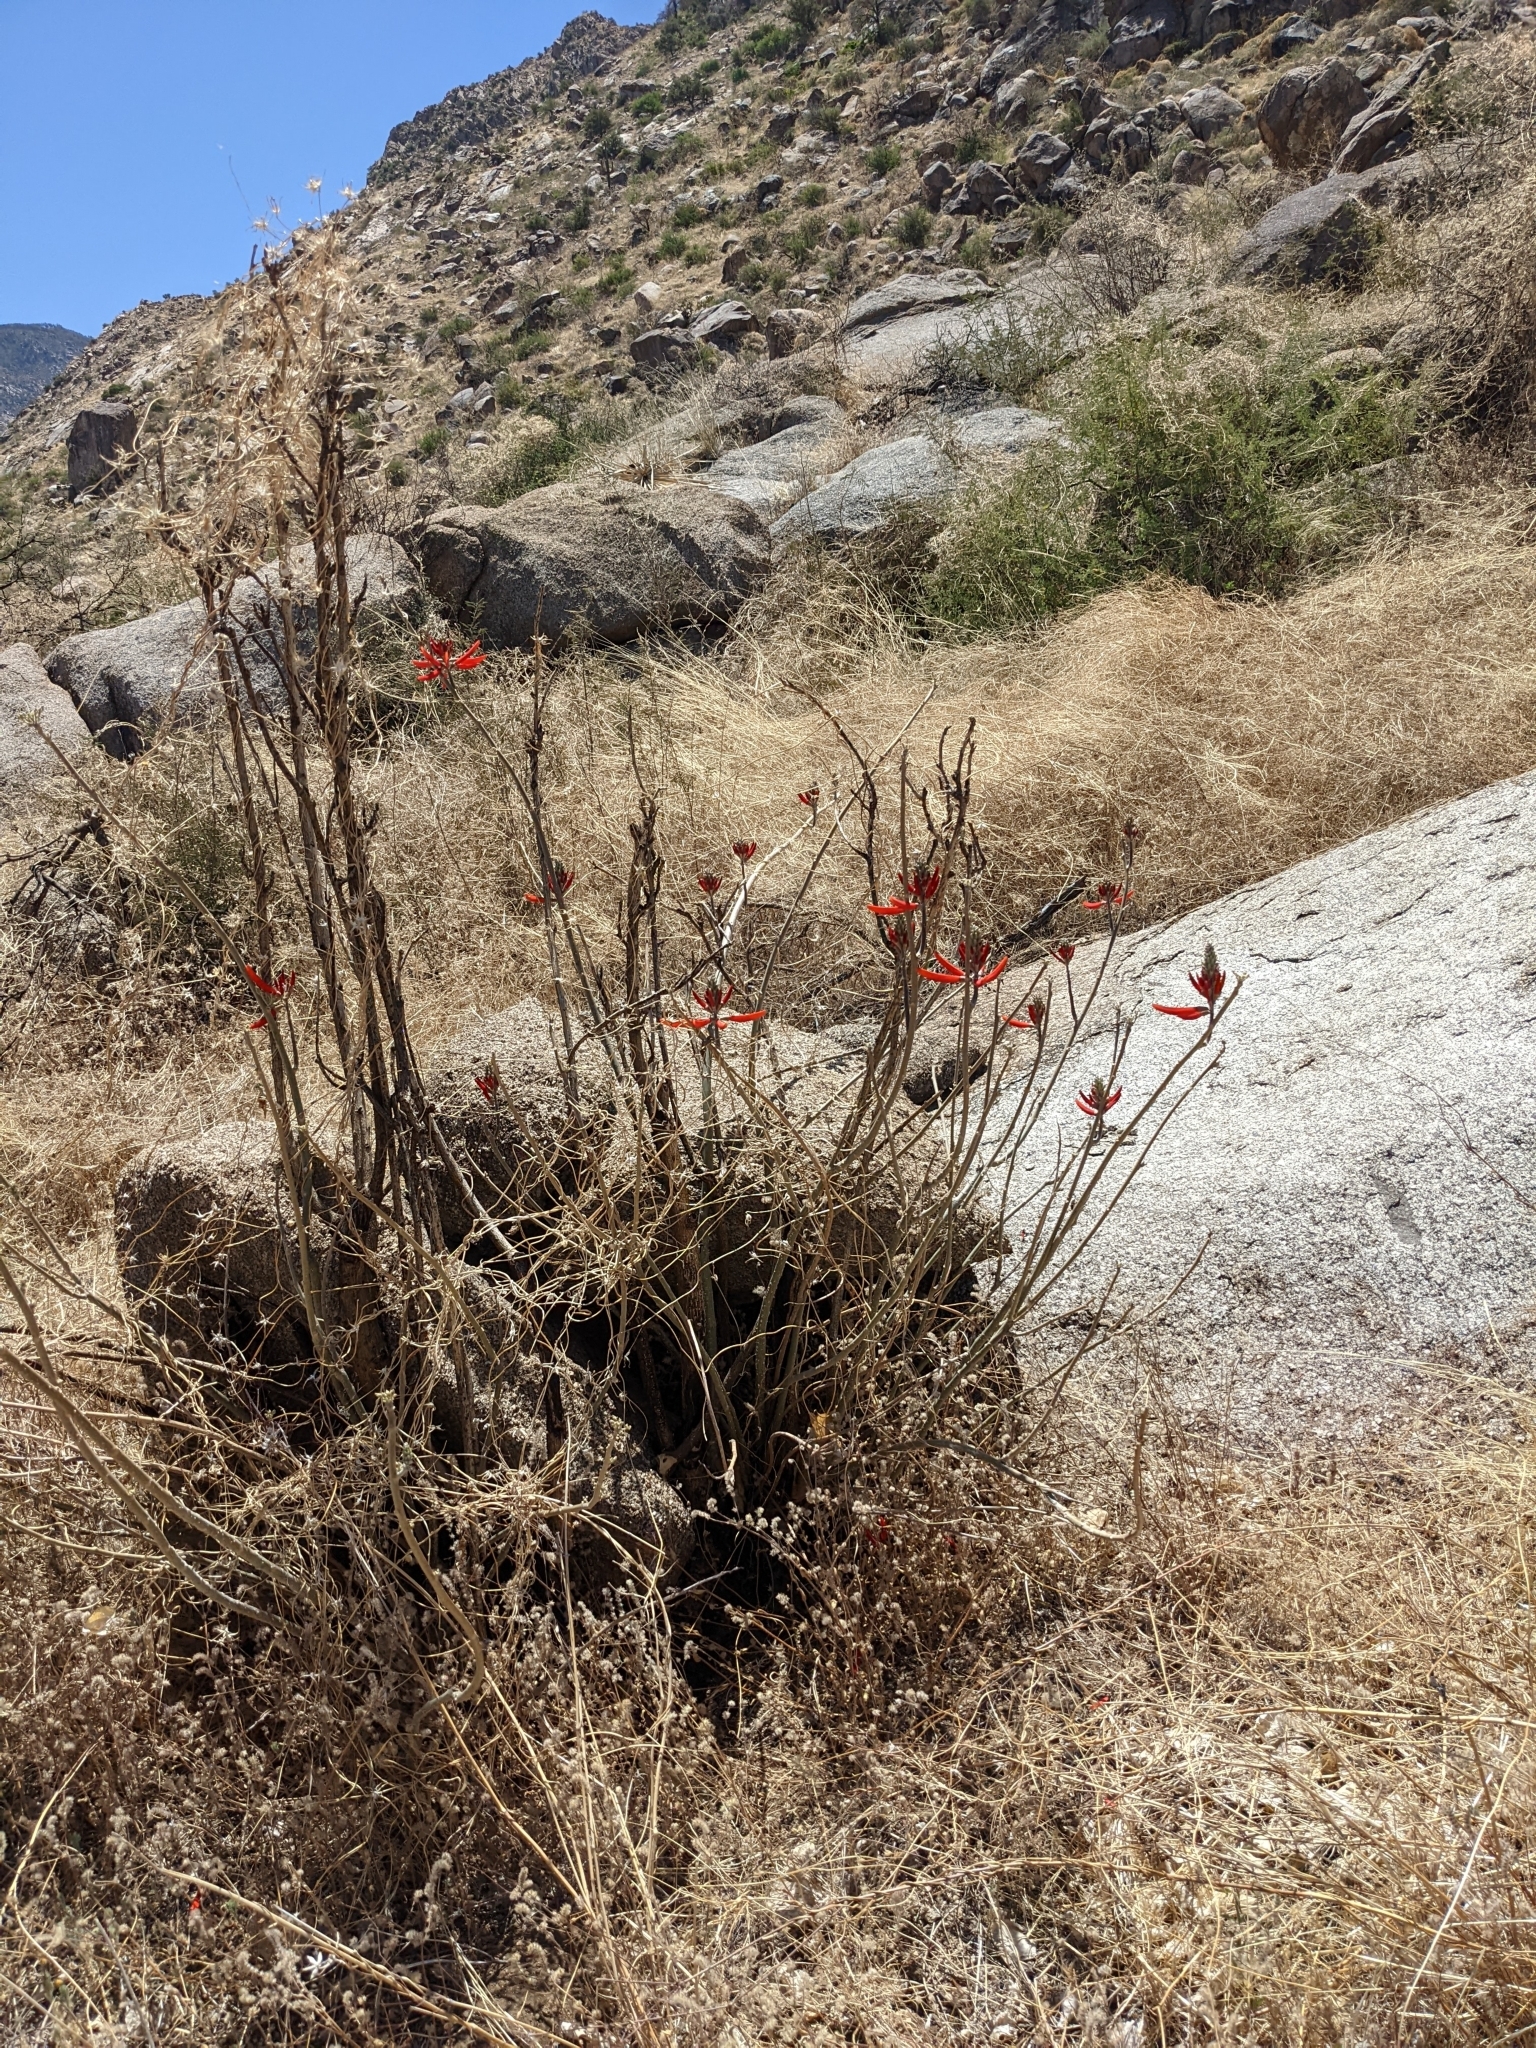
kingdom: Plantae
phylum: Tracheophyta
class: Magnoliopsida
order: Fabales
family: Fabaceae
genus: Erythrina
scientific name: Erythrina flabelliformis
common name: Chilicote
